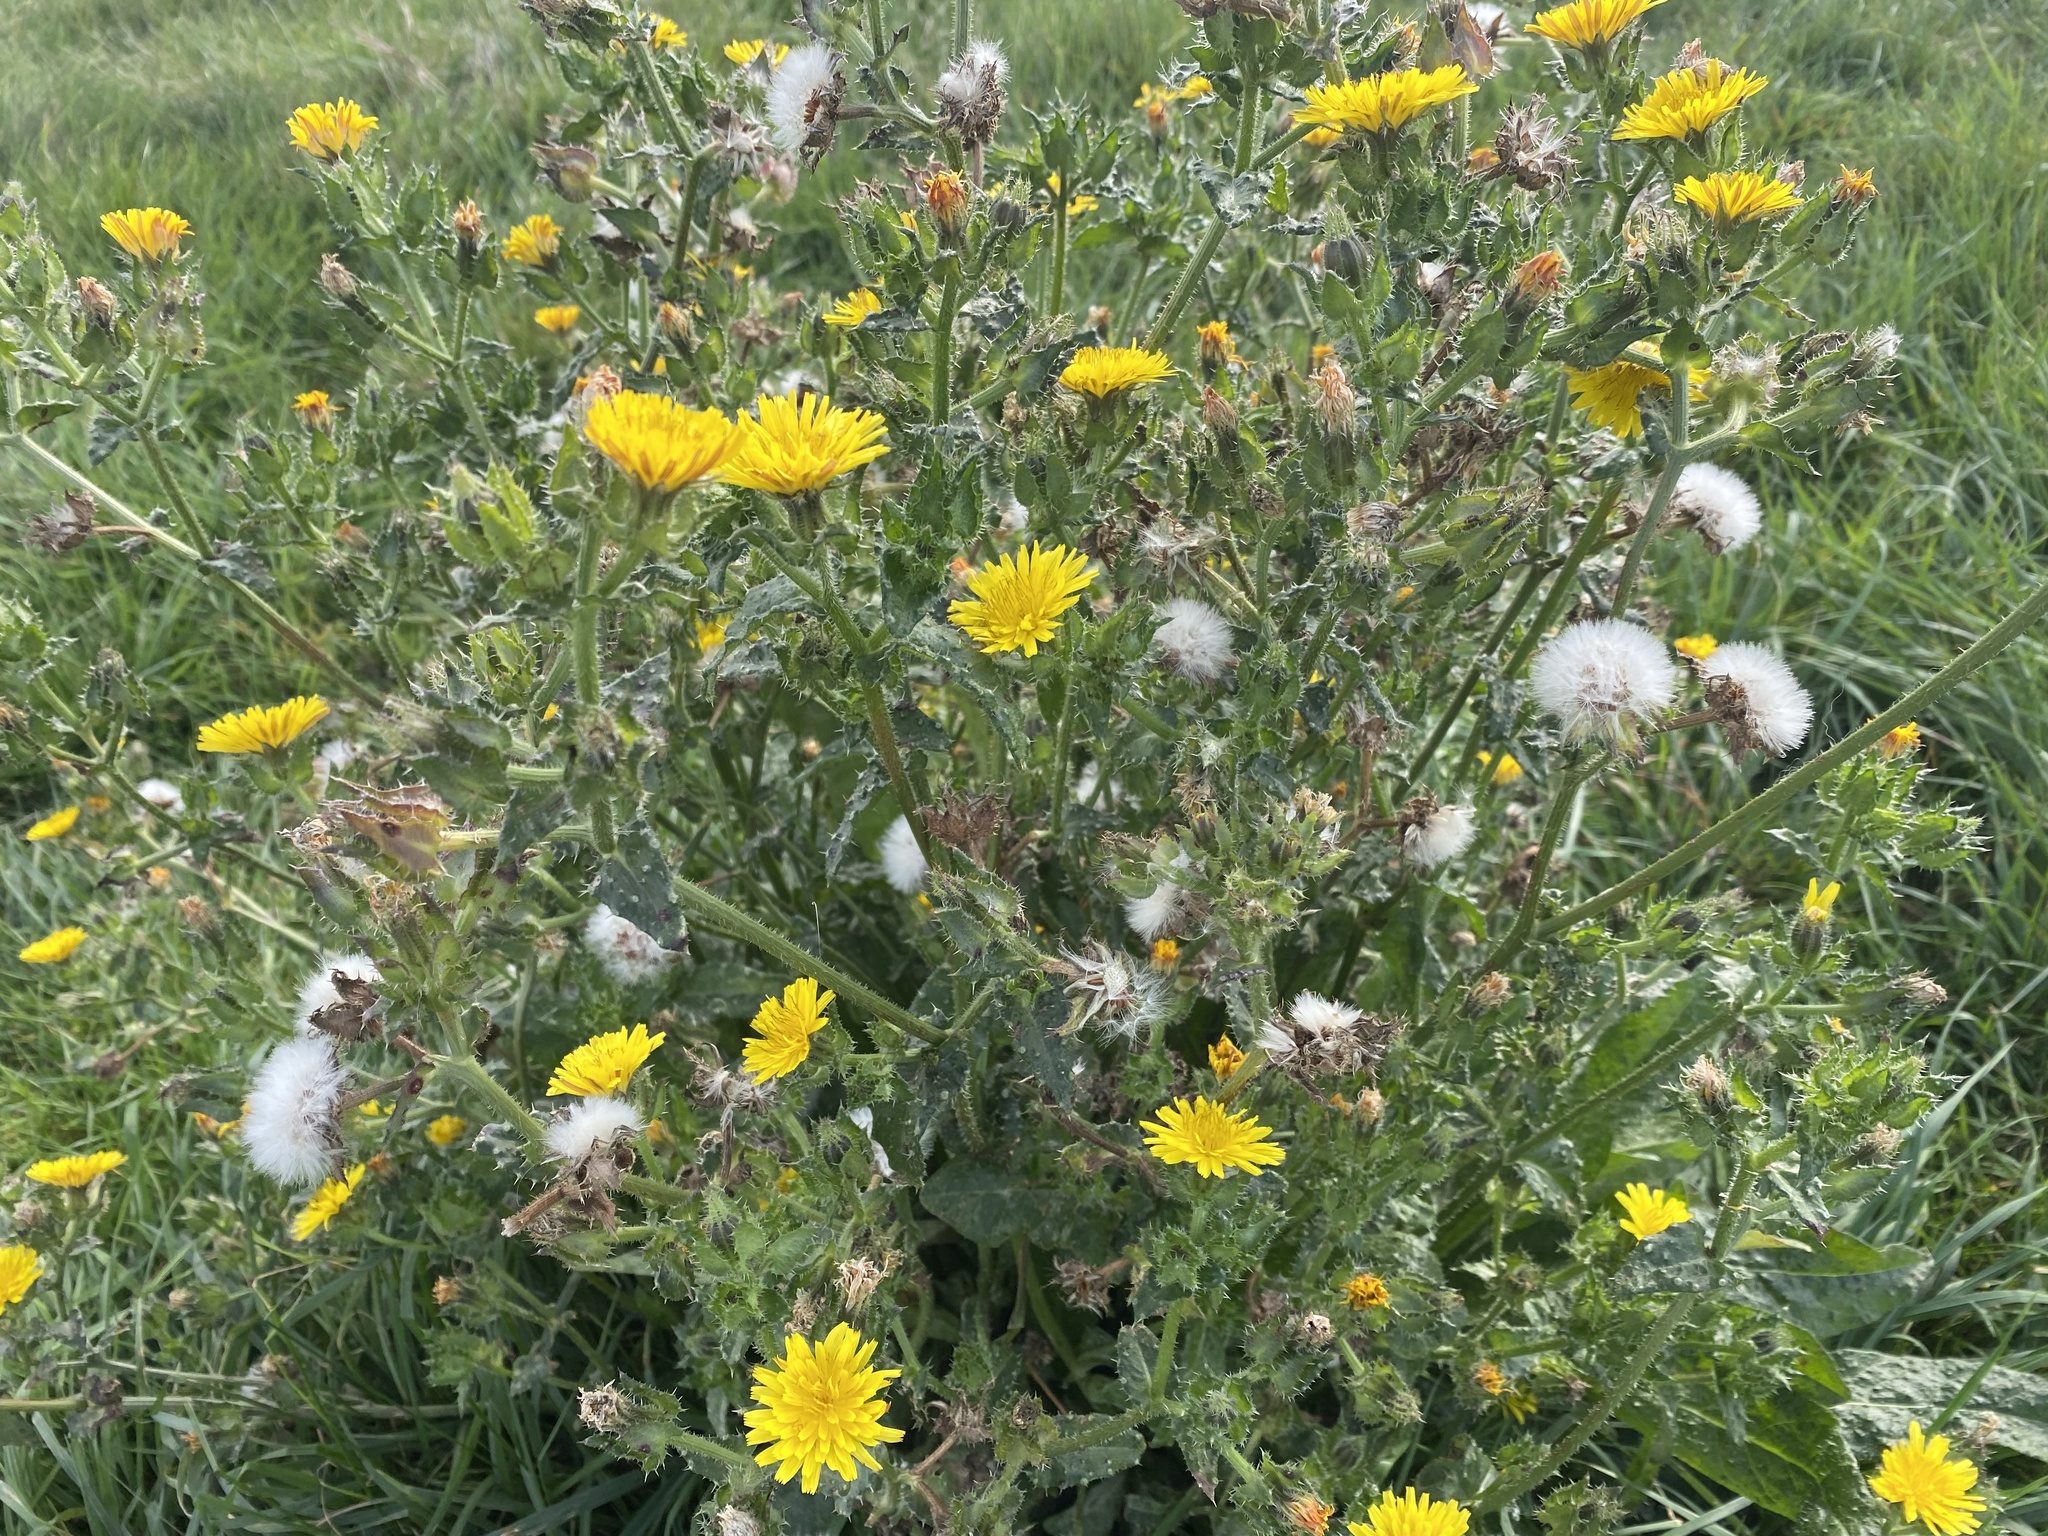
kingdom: Plantae
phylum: Tracheophyta
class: Magnoliopsida
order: Asterales
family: Asteraceae
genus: Helminthotheca
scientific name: Helminthotheca echioides
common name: Ox-tongue
